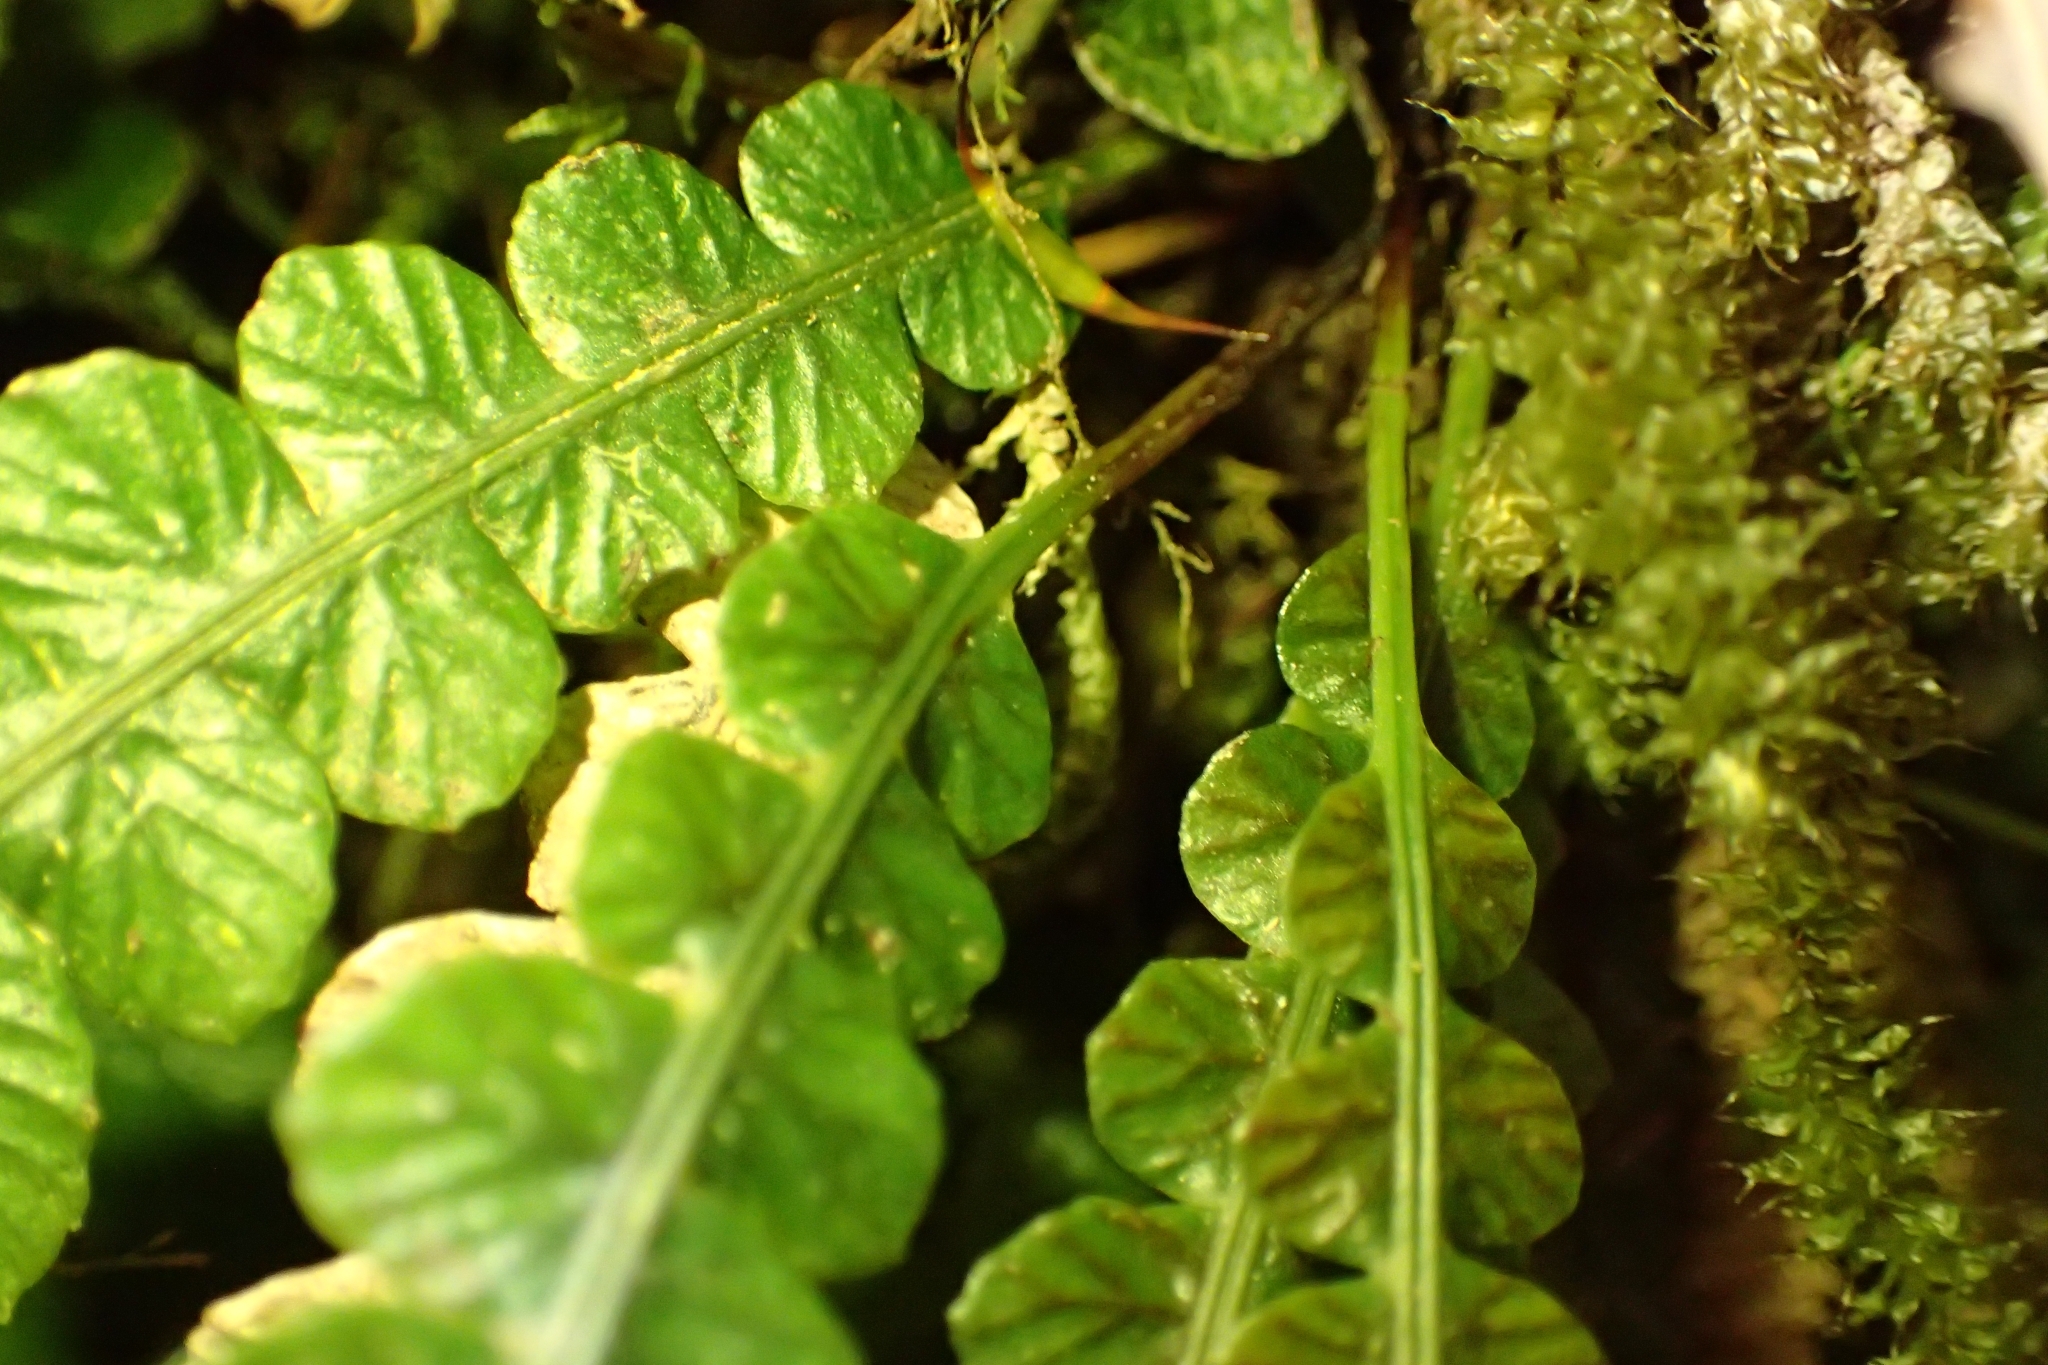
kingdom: Plantae
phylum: Tracheophyta
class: Polypodiopsida
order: Polypodiales
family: Blechnaceae
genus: Austroblechnum
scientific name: Austroblechnum lanceolatum
